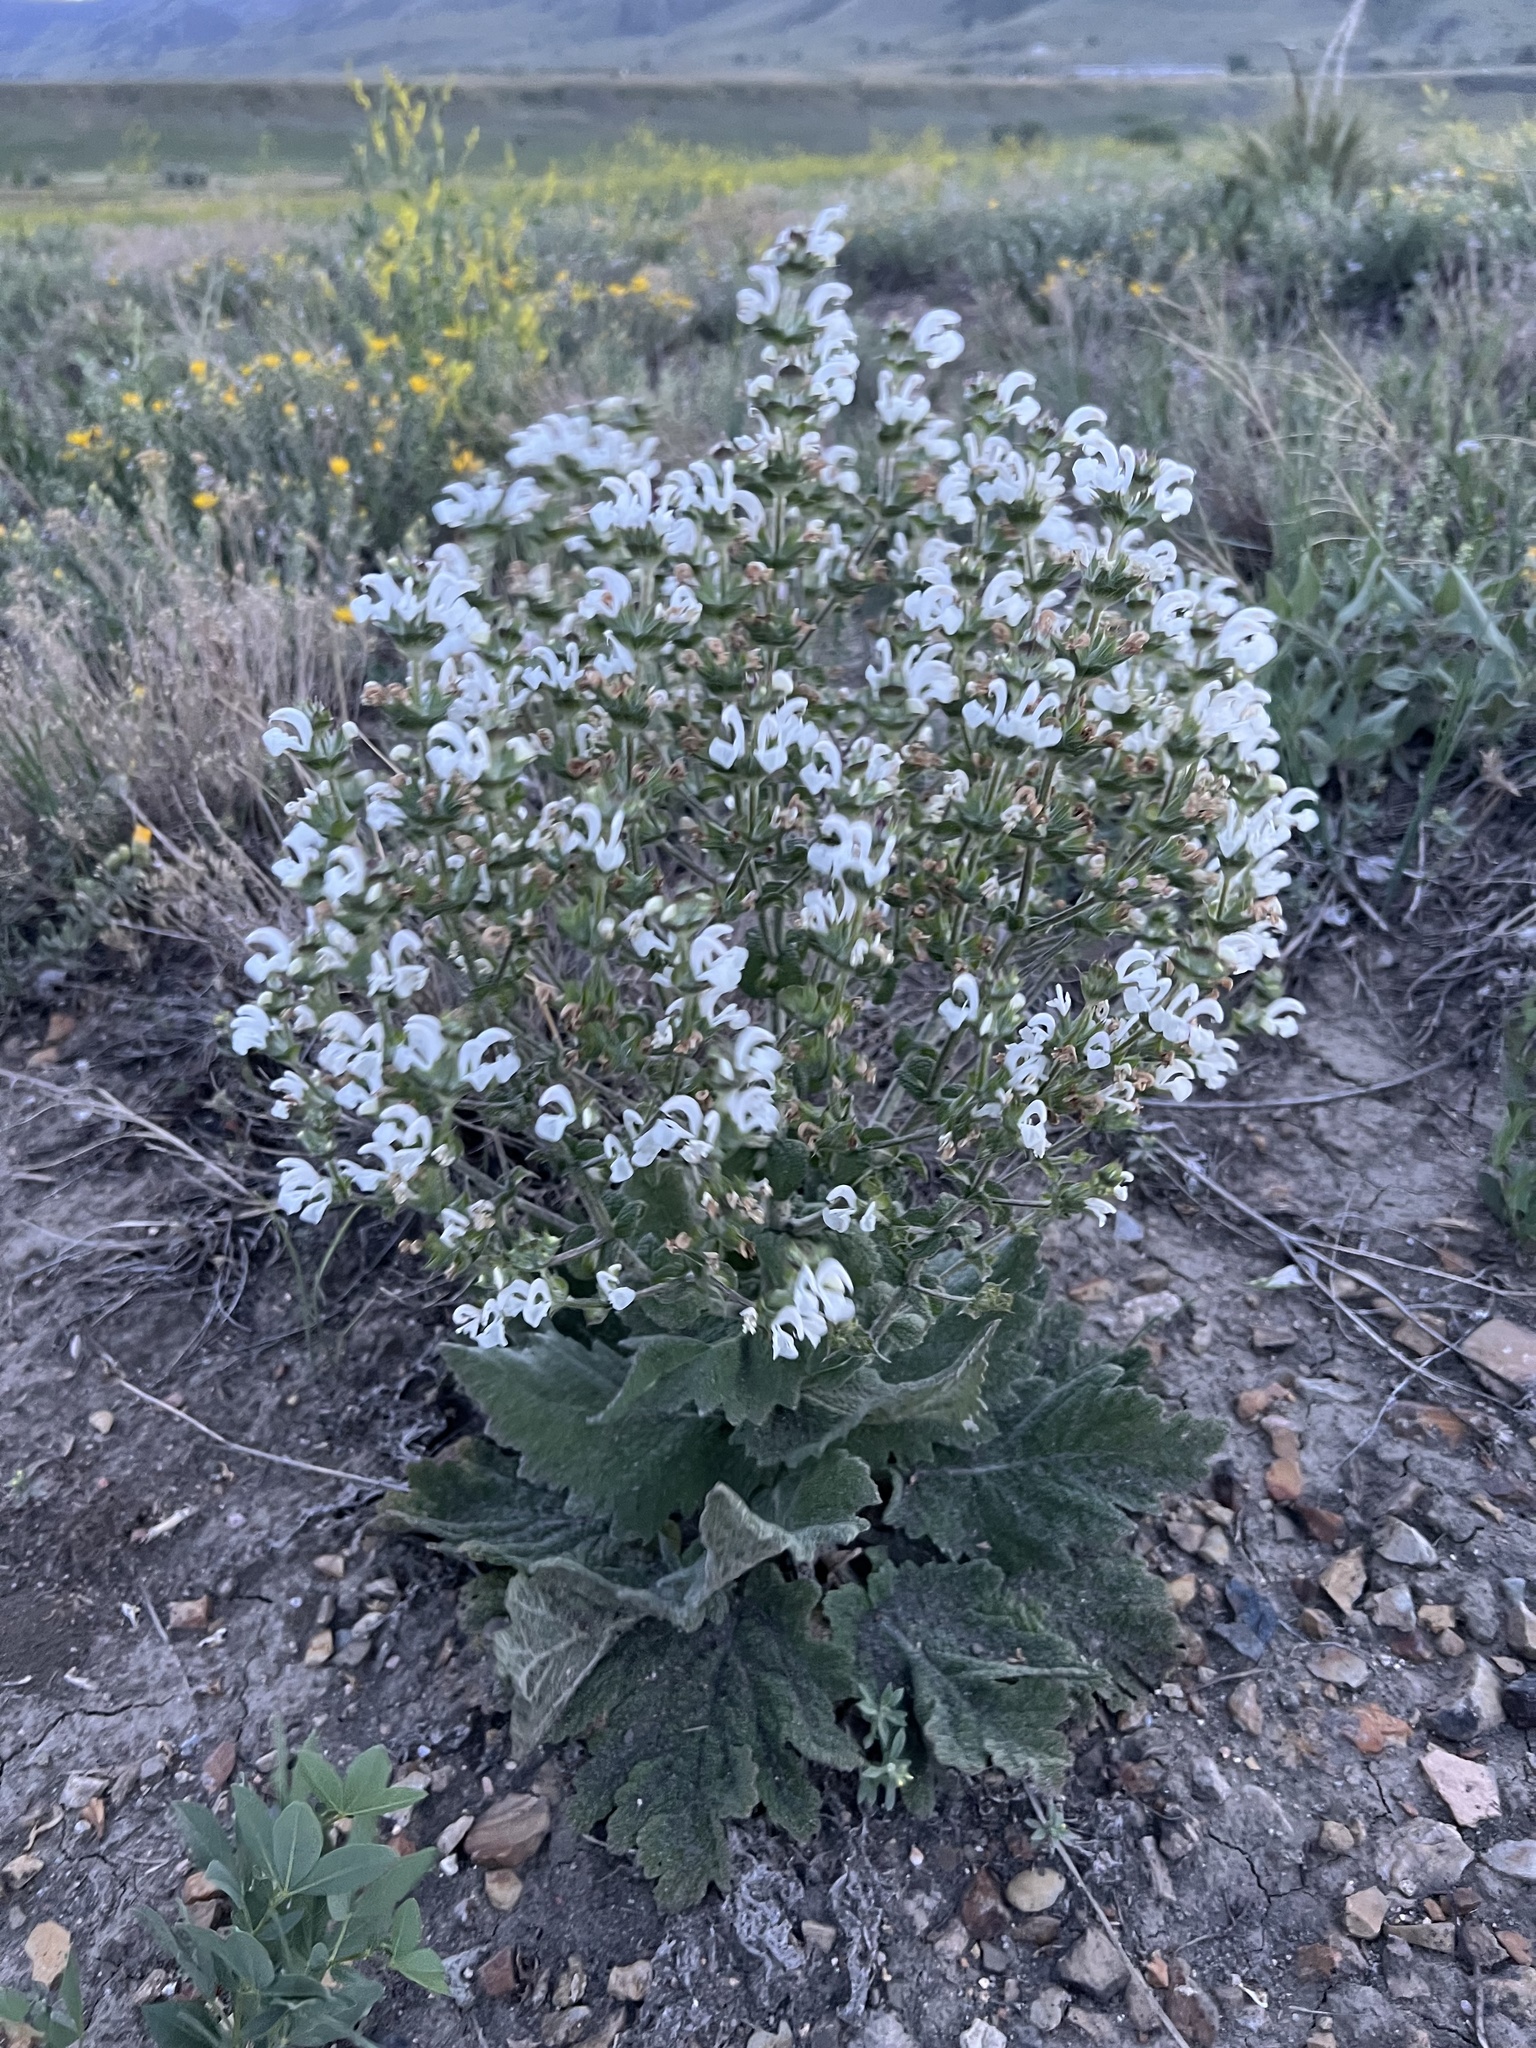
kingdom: Plantae
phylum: Tracheophyta
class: Magnoliopsida
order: Lamiales
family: Lamiaceae
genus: Salvia
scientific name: Salvia aethiopis
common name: Mediterranean sage
